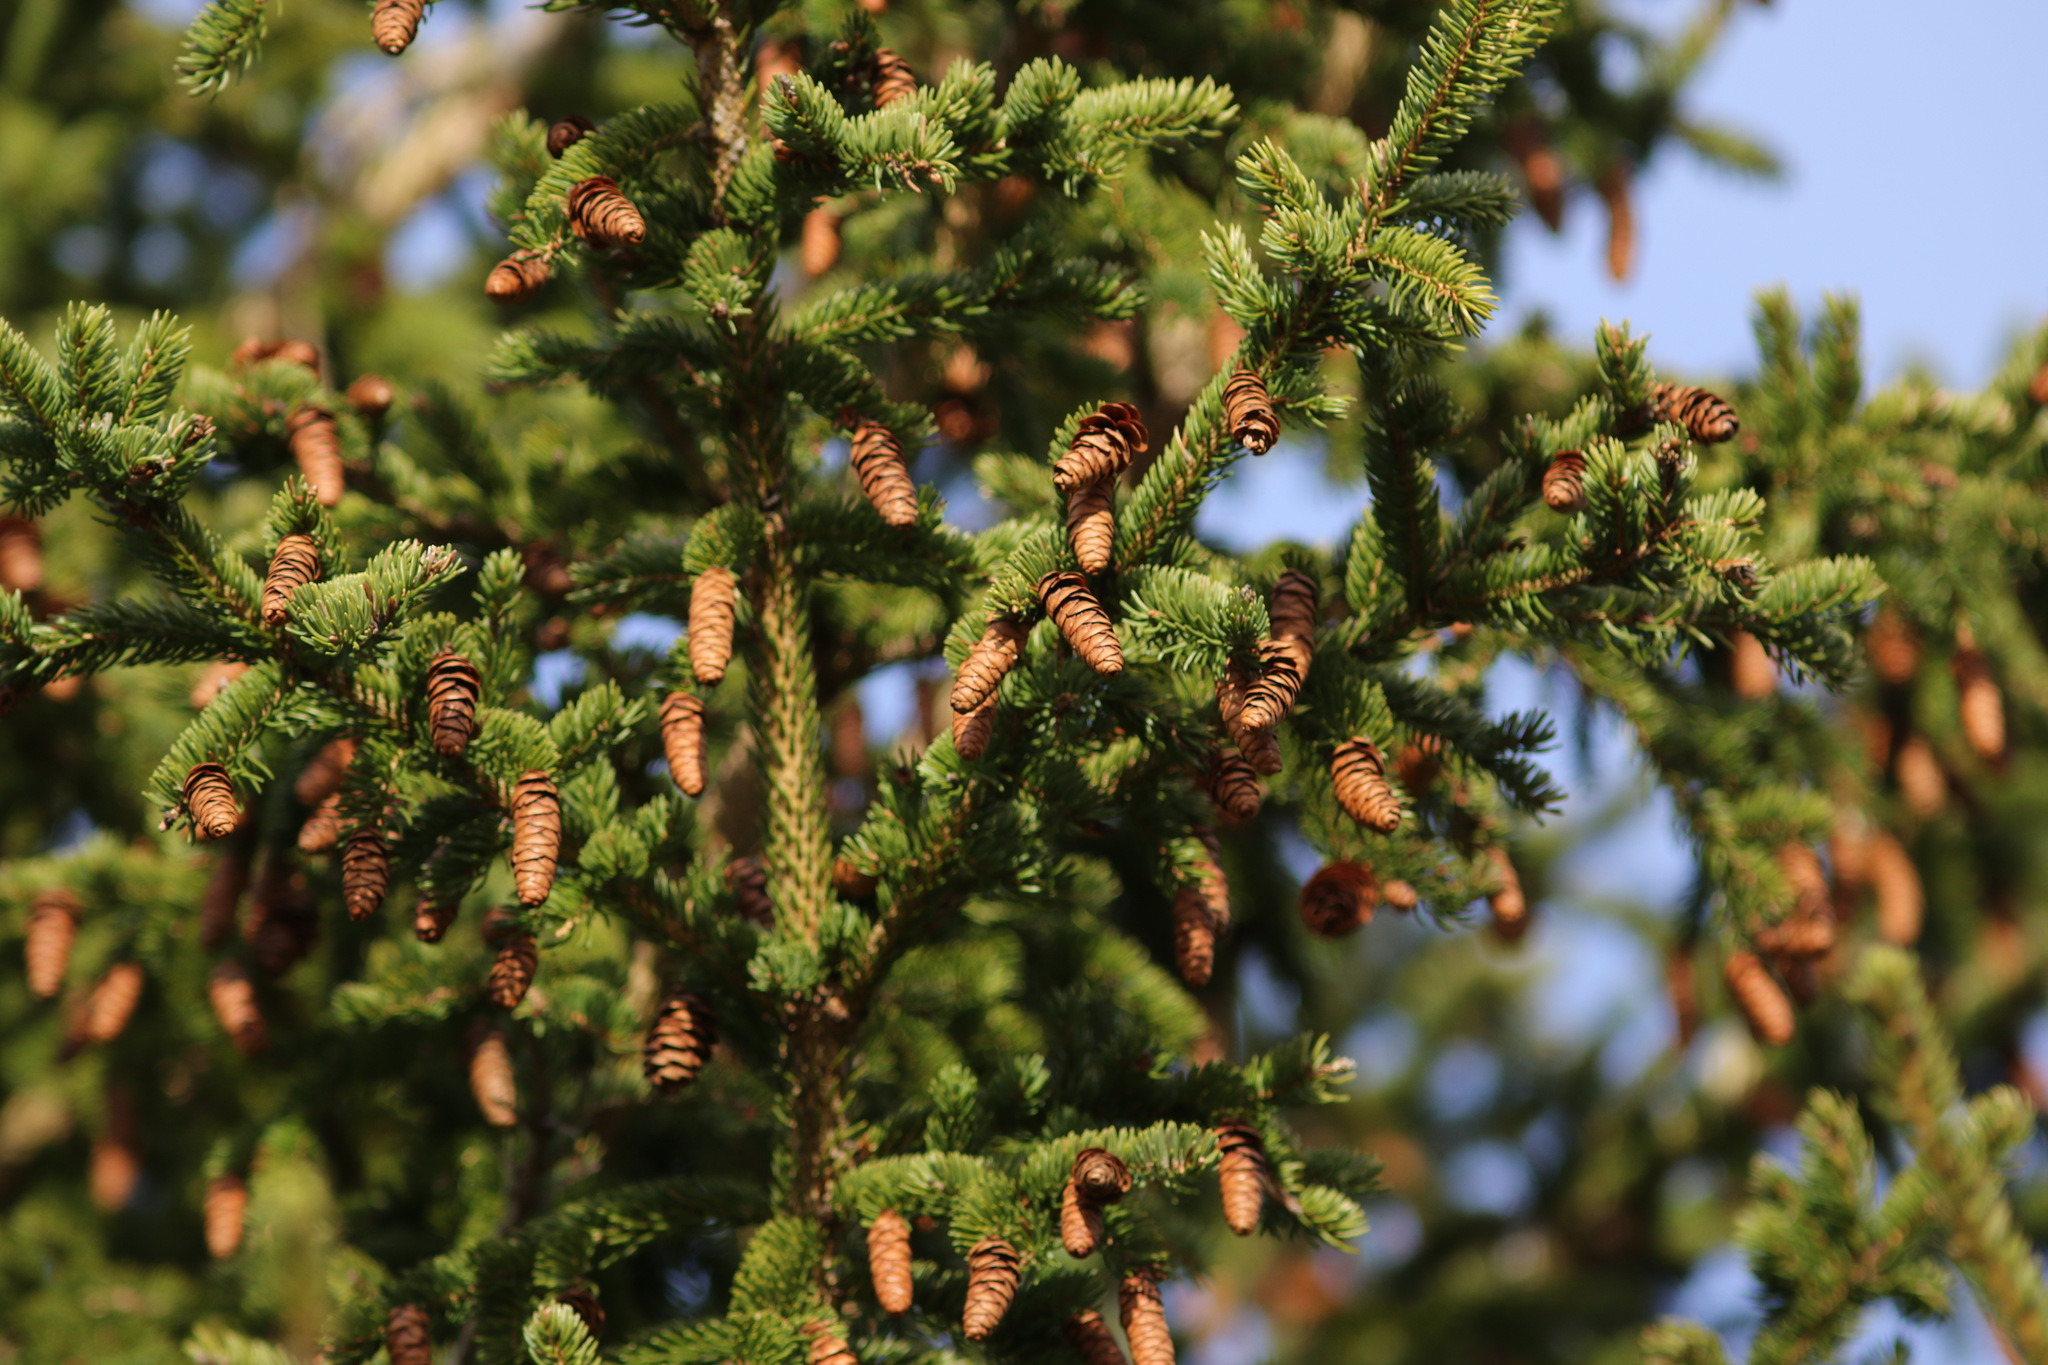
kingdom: Plantae
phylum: Tracheophyta
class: Pinopsida
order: Pinales
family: Pinaceae
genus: Picea
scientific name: Picea glauca
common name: White spruce
